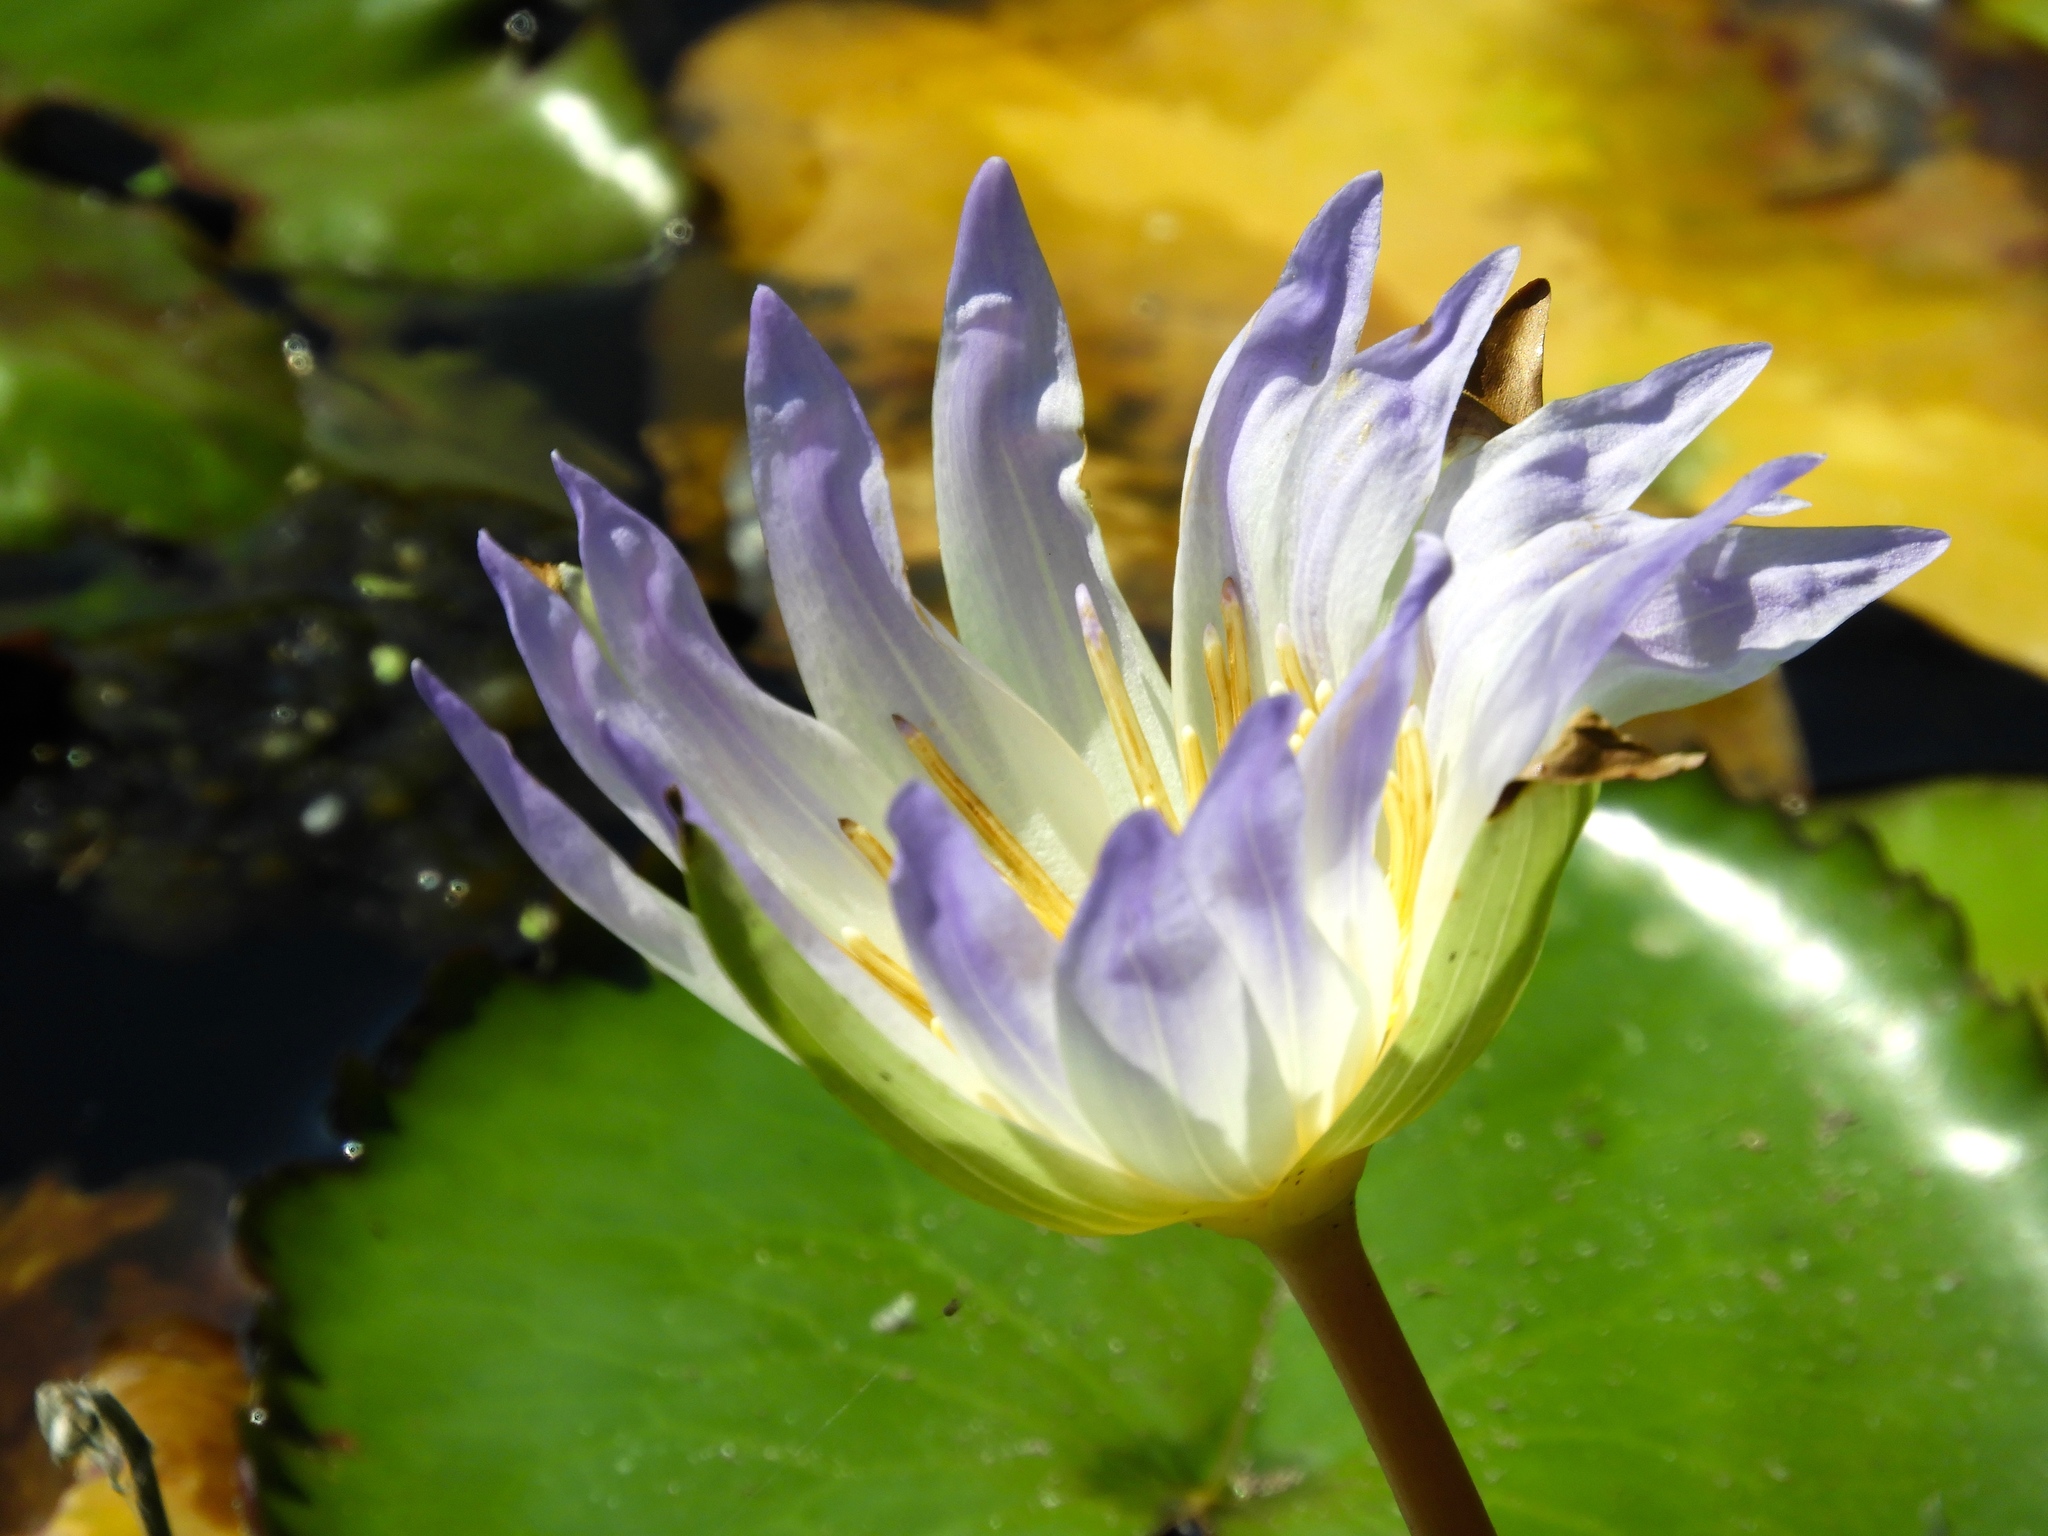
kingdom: Plantae
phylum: Tracheophyta
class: Magnoliopsida
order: Nymphaeales
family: Nymphaeaceae
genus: Nymphaea
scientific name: Nymphaea elegans
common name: Blue water-lily
